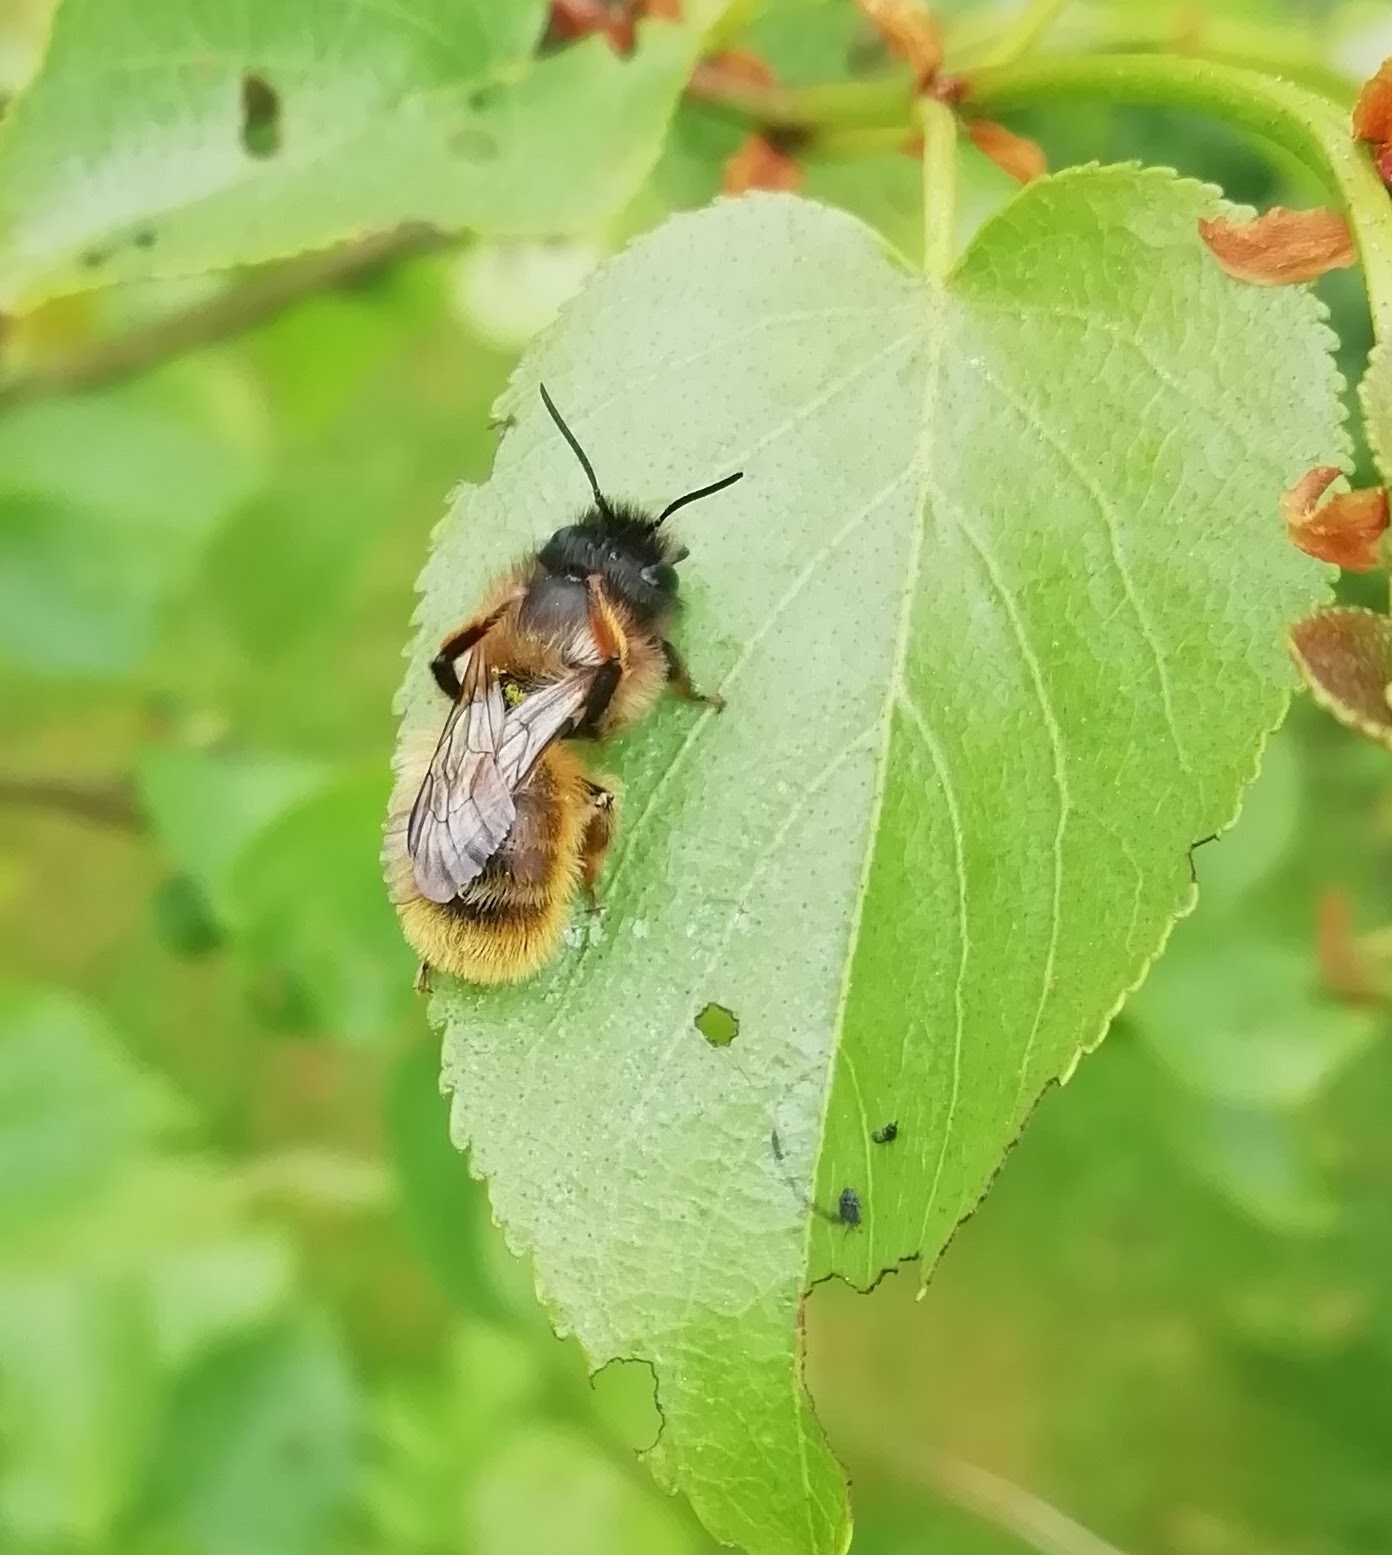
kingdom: Animalia
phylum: Arthropoda
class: Insecta
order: Hymenoptera
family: Megachilidae
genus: Osmia
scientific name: Osmia bicornis
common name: Red mason bee
